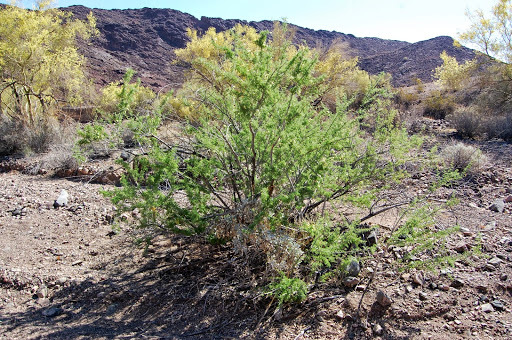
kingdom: Plantae
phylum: Tracheophyta
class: Magnoliopsida
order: Fabales
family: Fabaceae
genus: Senegalia
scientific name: Senegalia greggii
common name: Texas-mimosa
